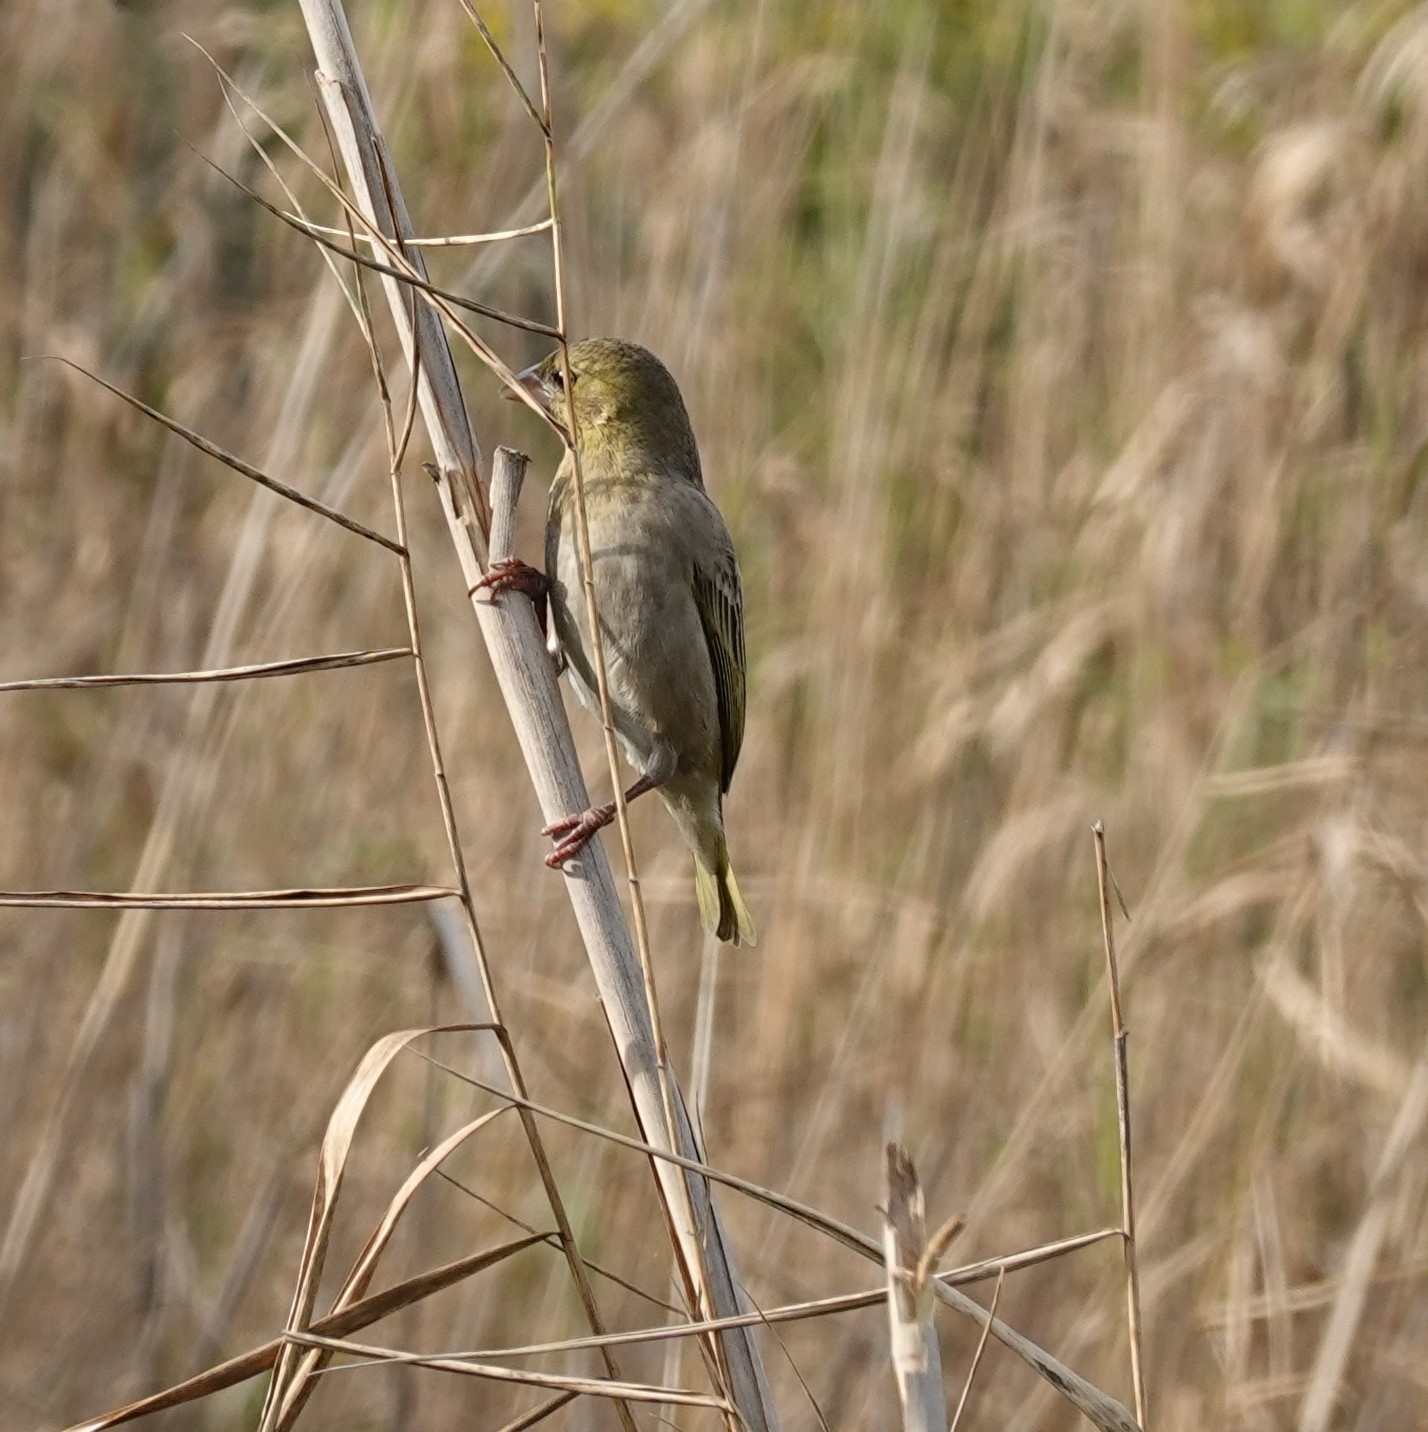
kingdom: Animalia
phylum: Chordata
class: Aves
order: Passeriformes
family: Ploceidae
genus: Ploceus
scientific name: Ploceus velatus
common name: Southern masked weaver
